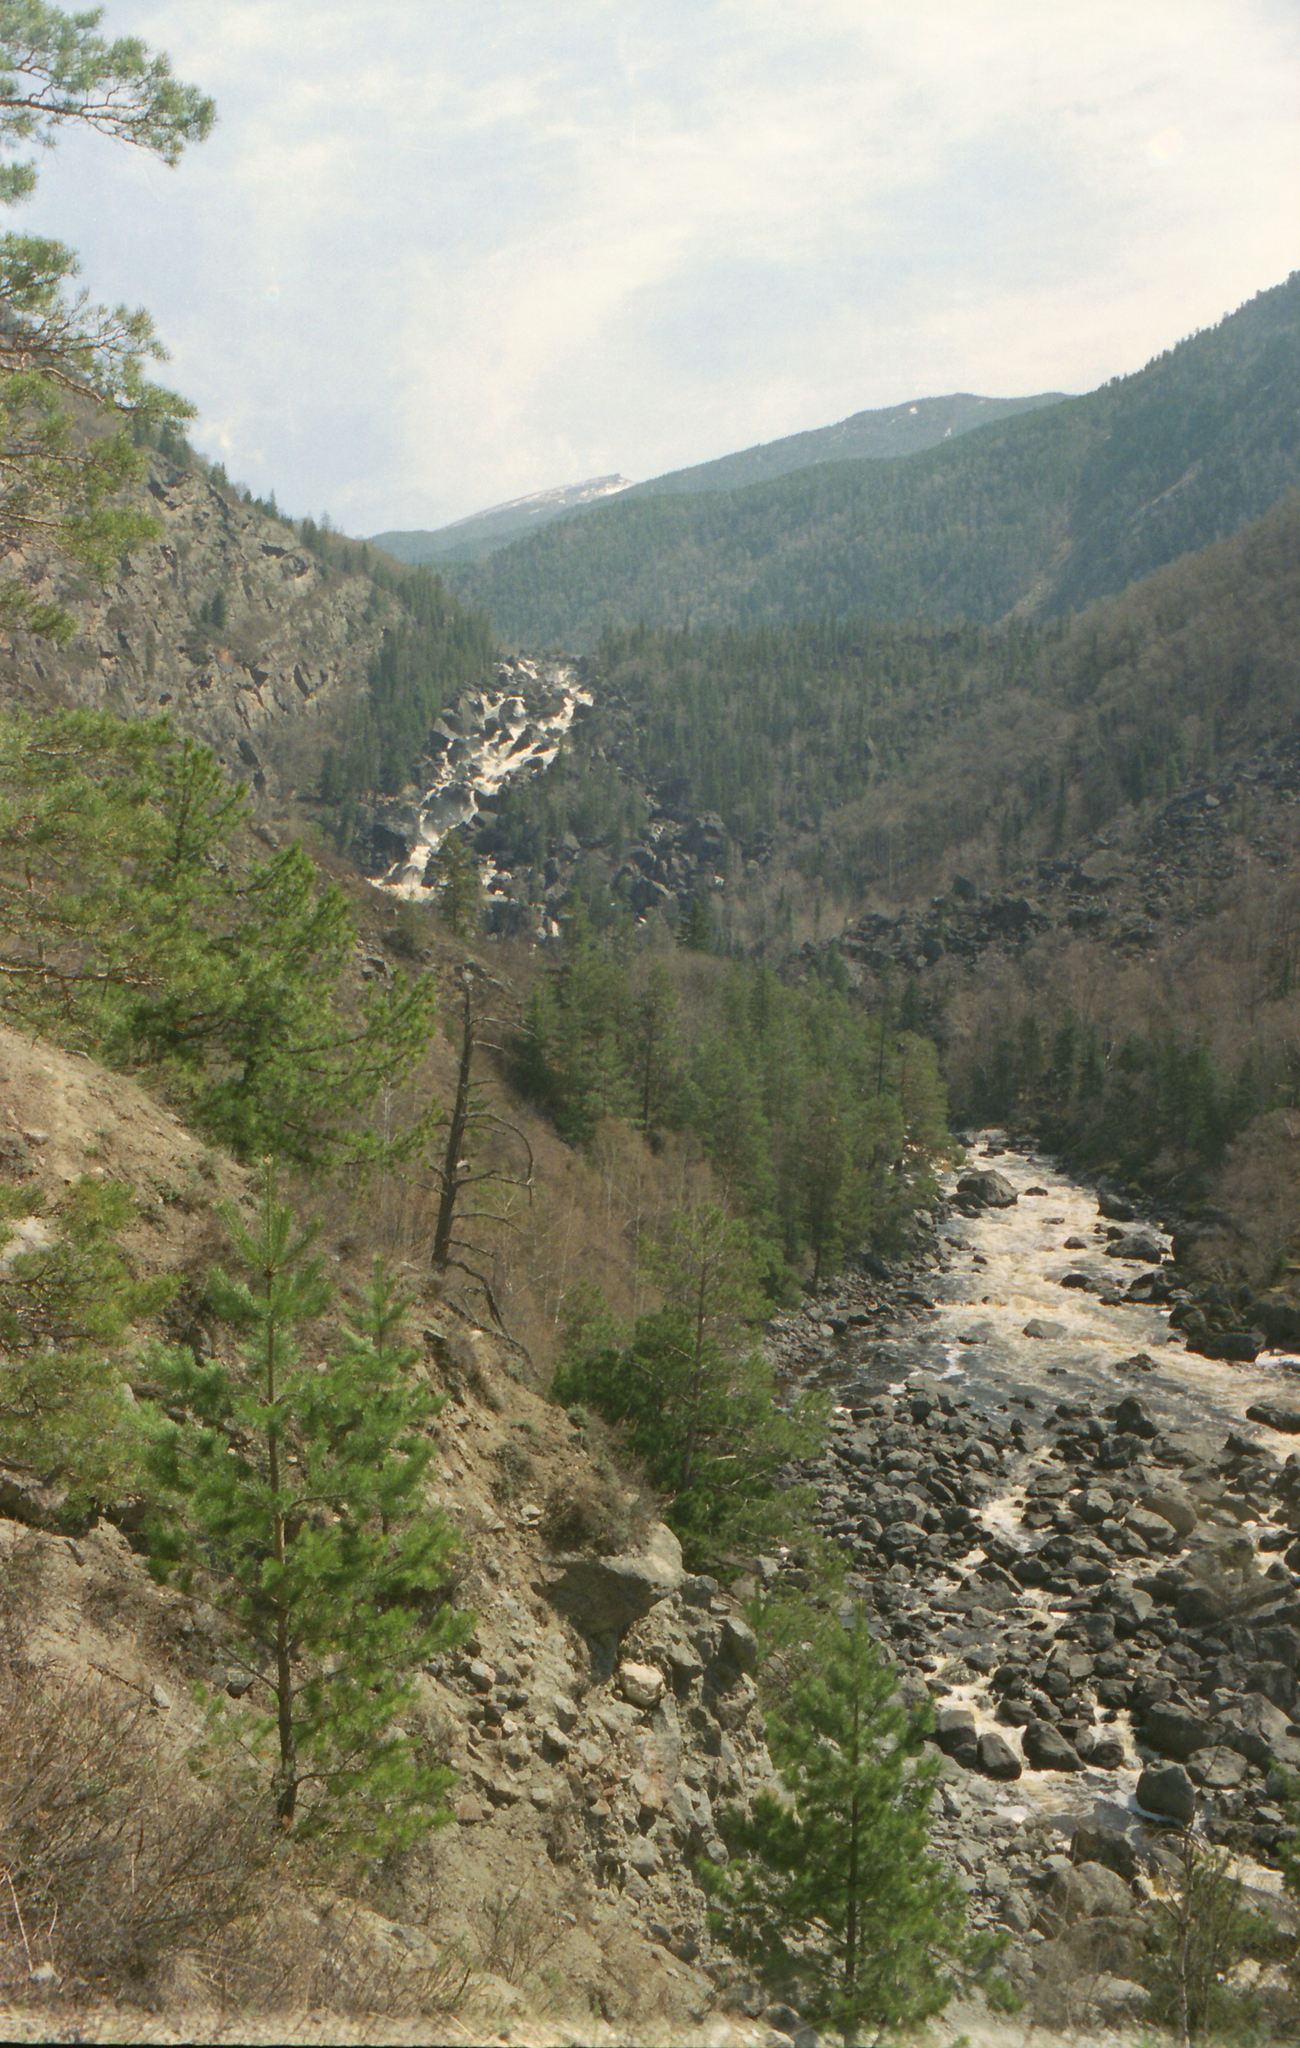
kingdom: Plantae
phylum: Tracheophyta
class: Pinopsida
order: Pinales
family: Pinaceae
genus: Pinus
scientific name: Pinus sylvestris
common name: Scots pine
